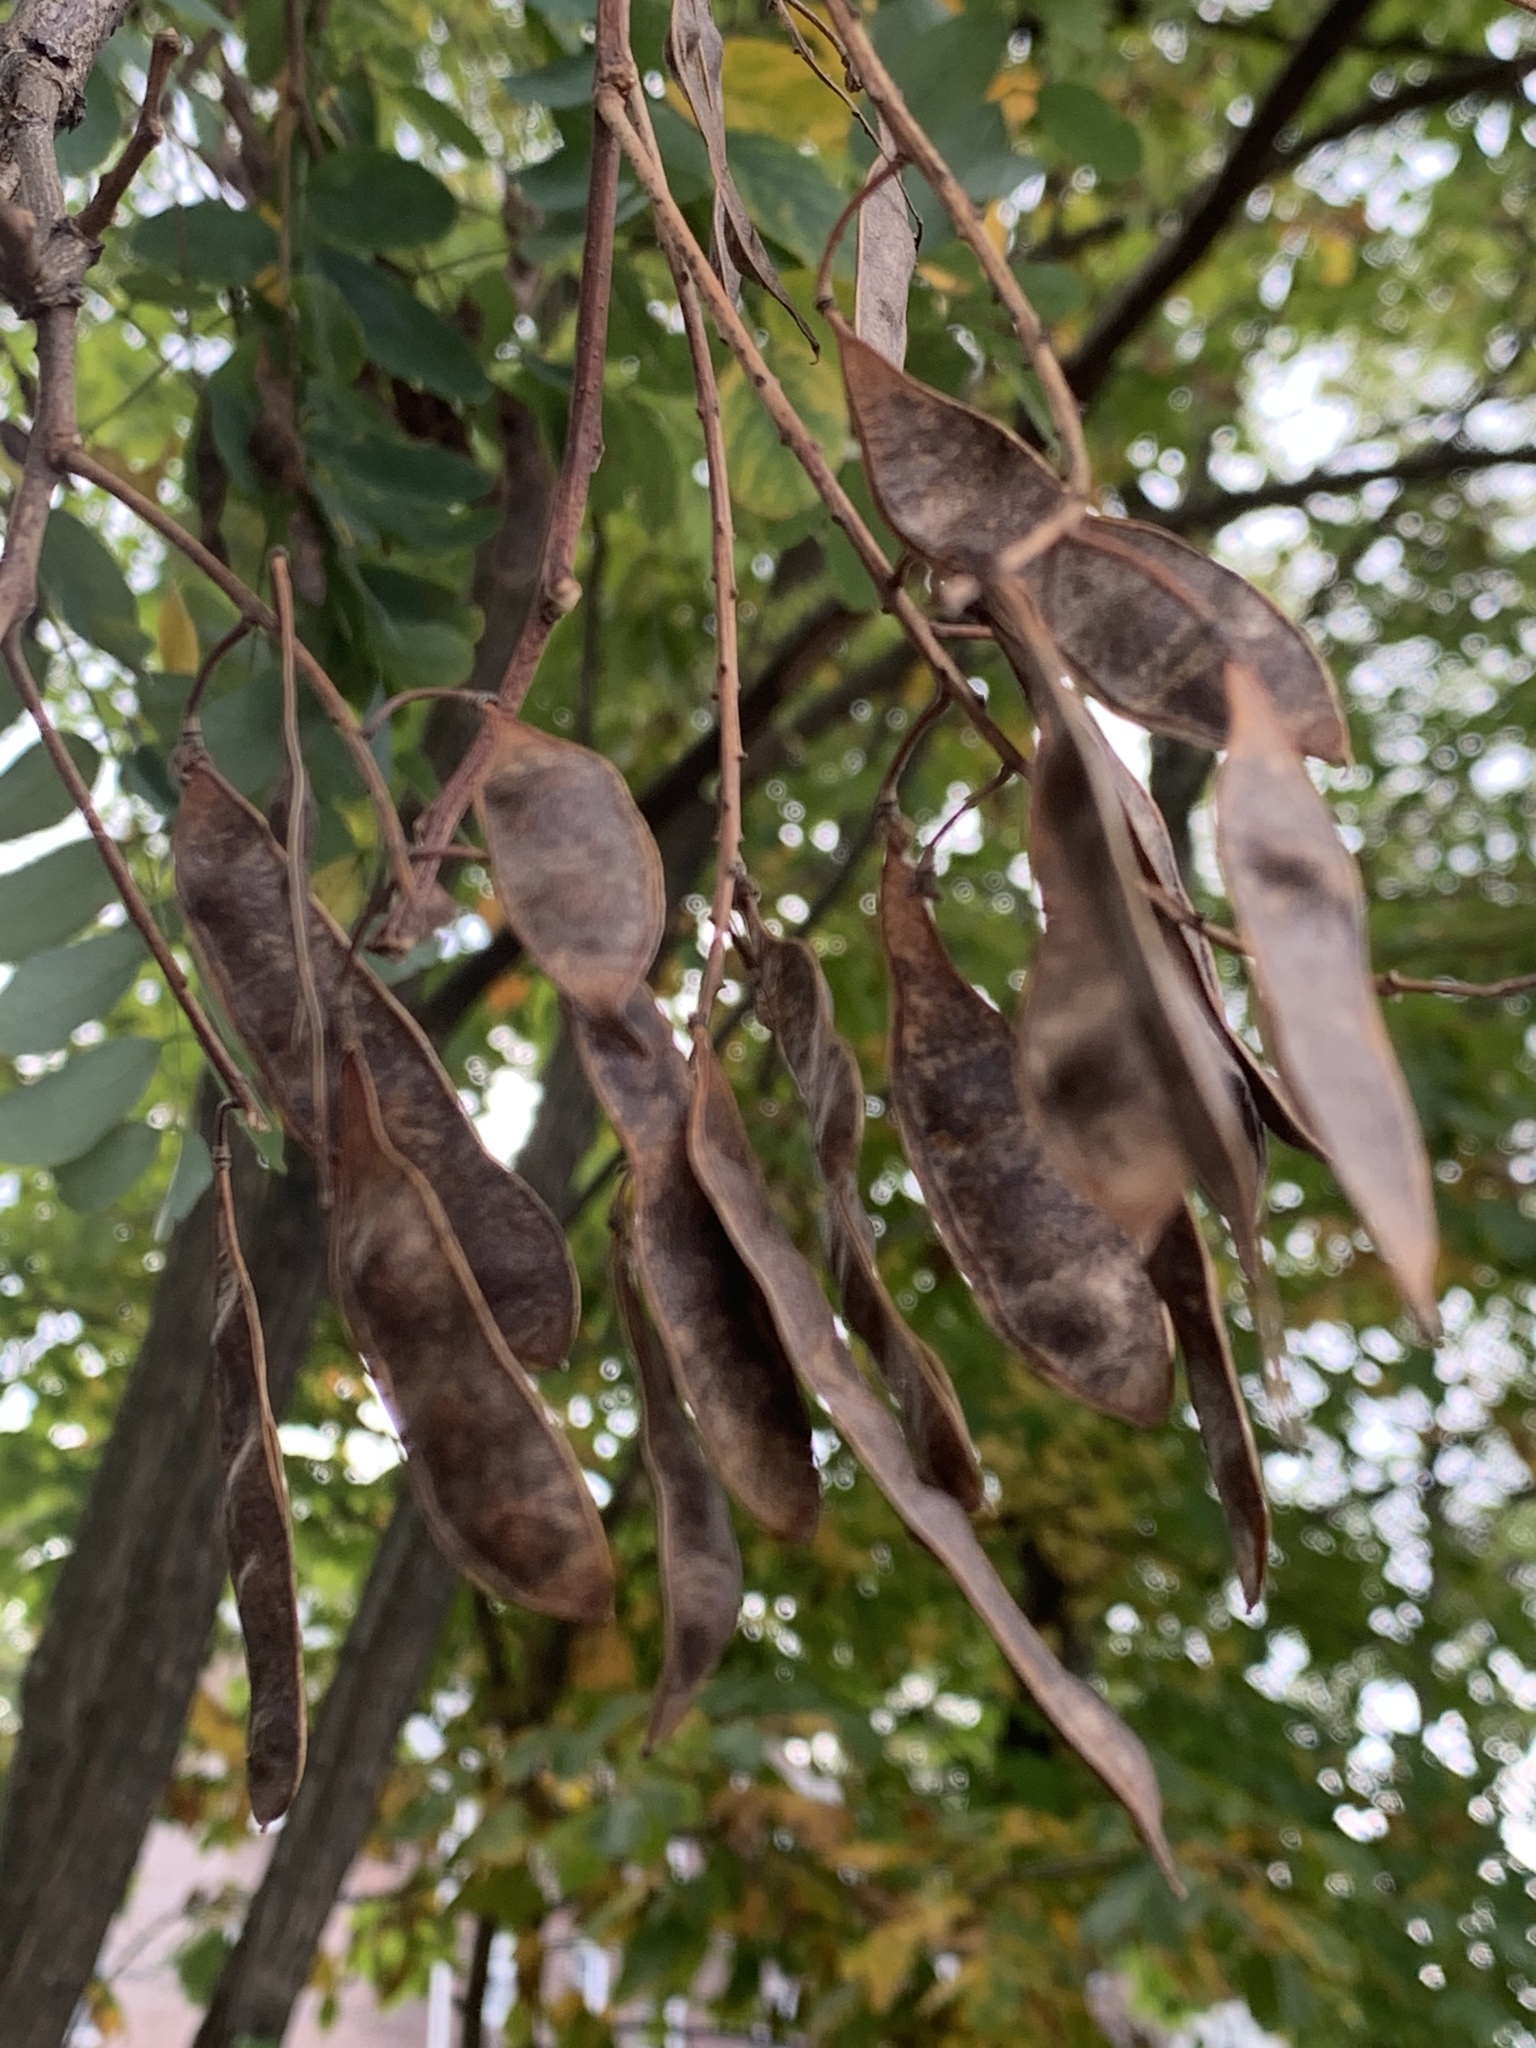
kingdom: Plantae
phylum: Tracheophyta
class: Magnoliopsida
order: Fabales
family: Fabaceae
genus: Robinia
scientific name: Robinia pseudoacacia
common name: Black locust
